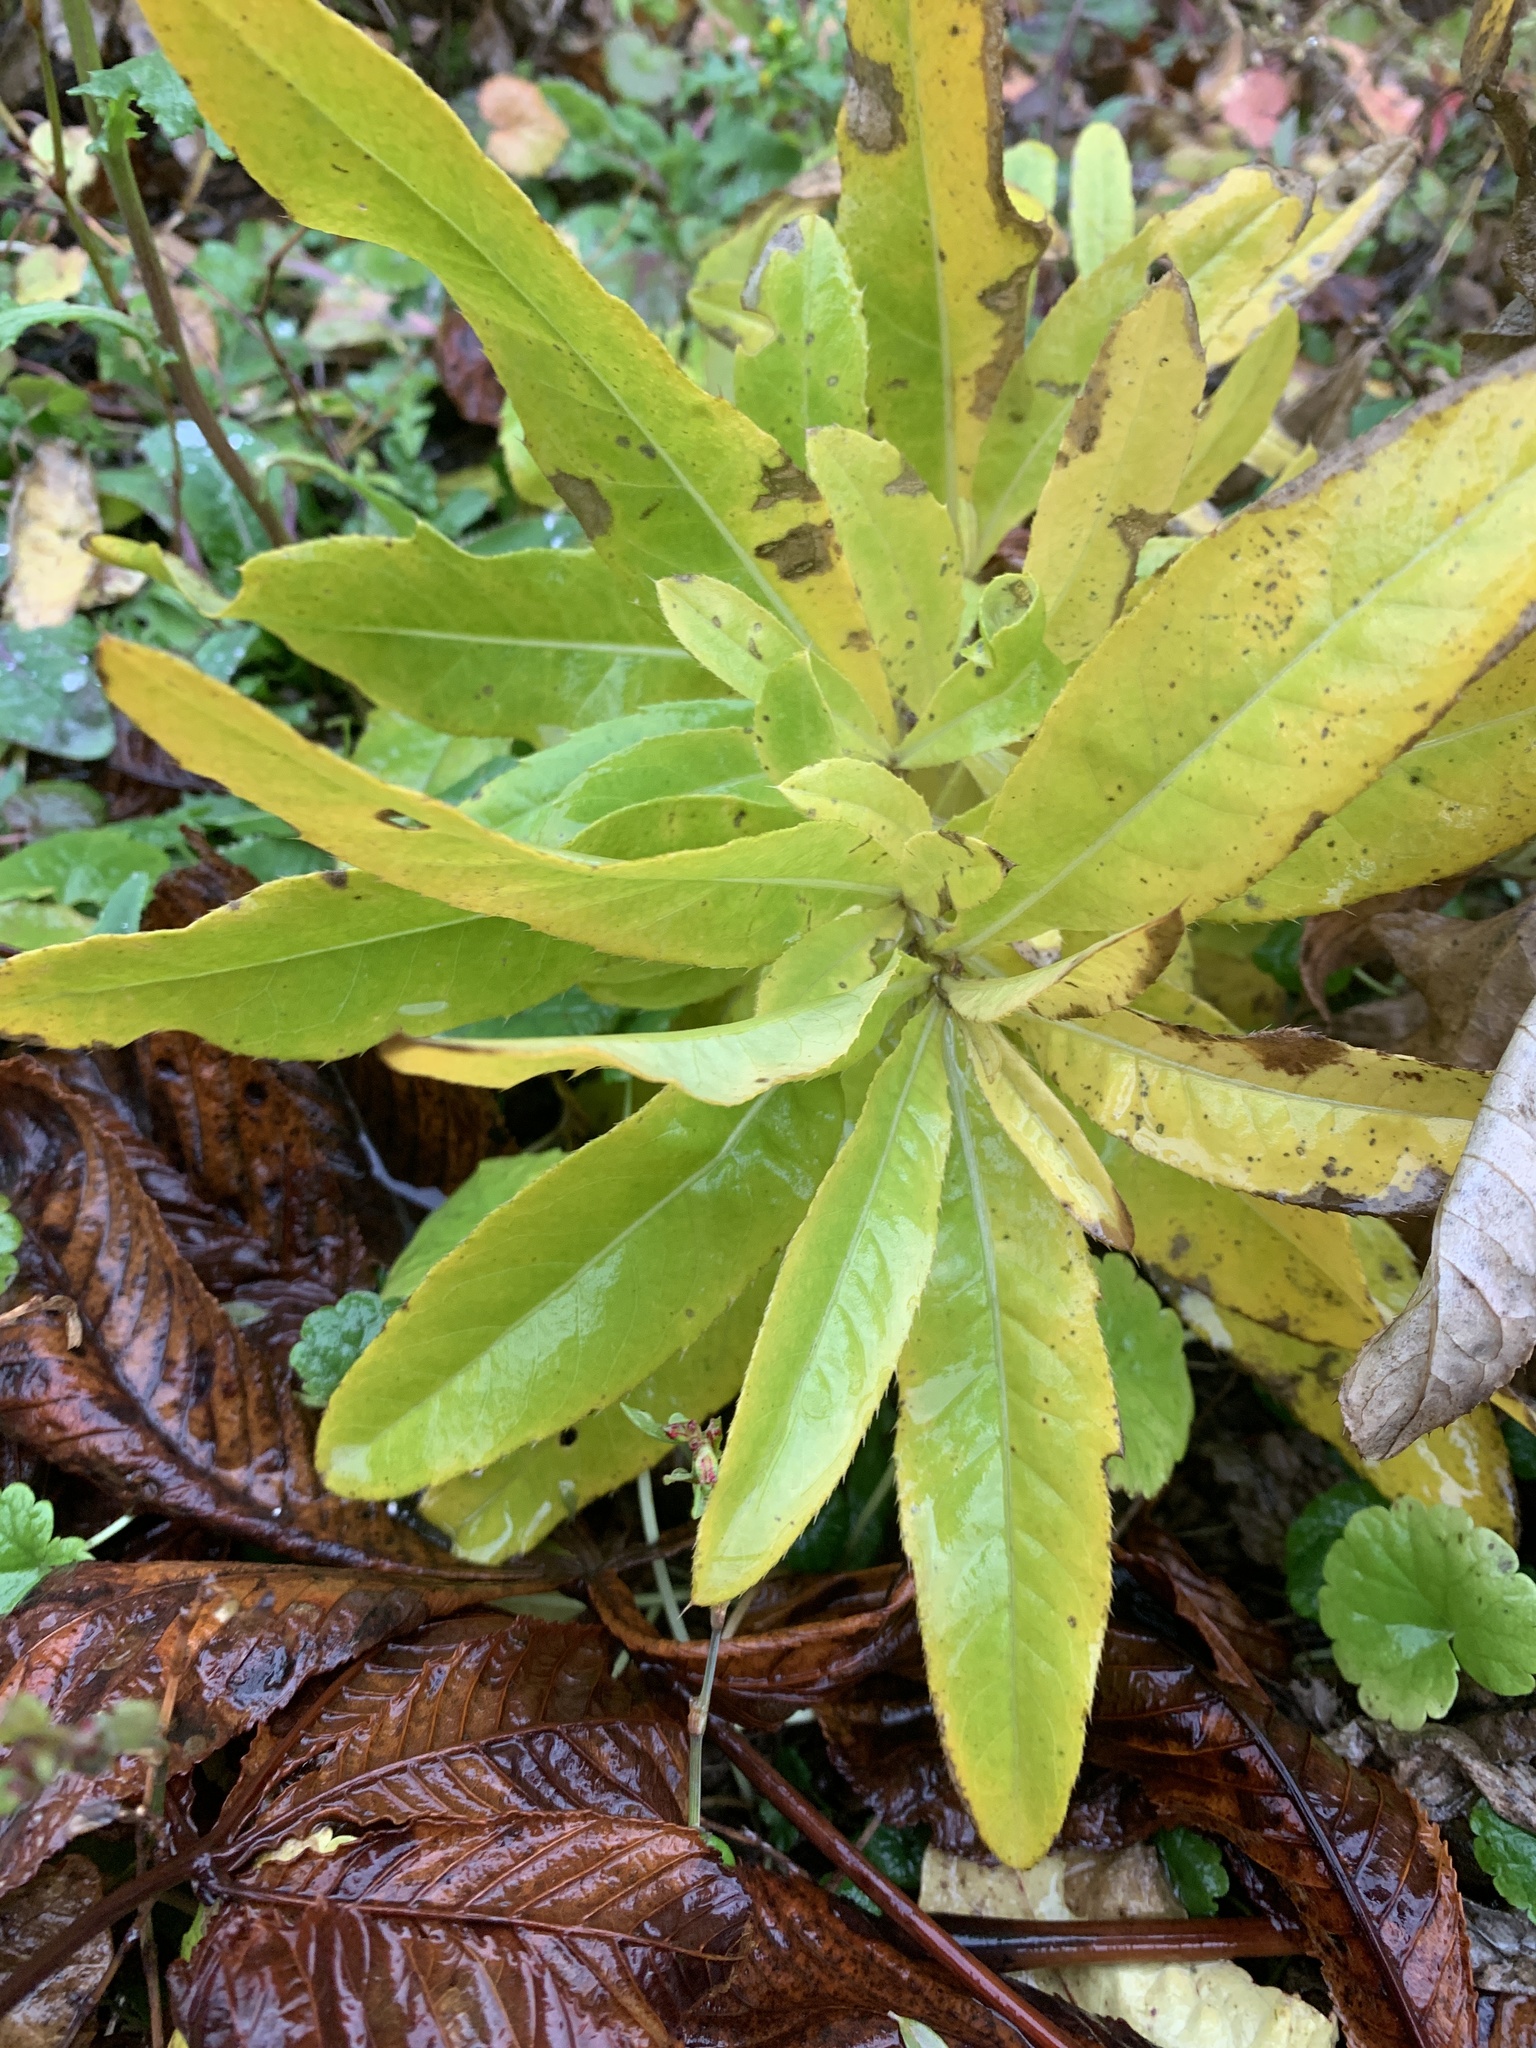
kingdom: Plantae
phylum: Tracheophyta
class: Magnoliopsida
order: Asterales
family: Asteraceae
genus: Cirsium
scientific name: Cirsium arvense
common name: Creeping thistle
